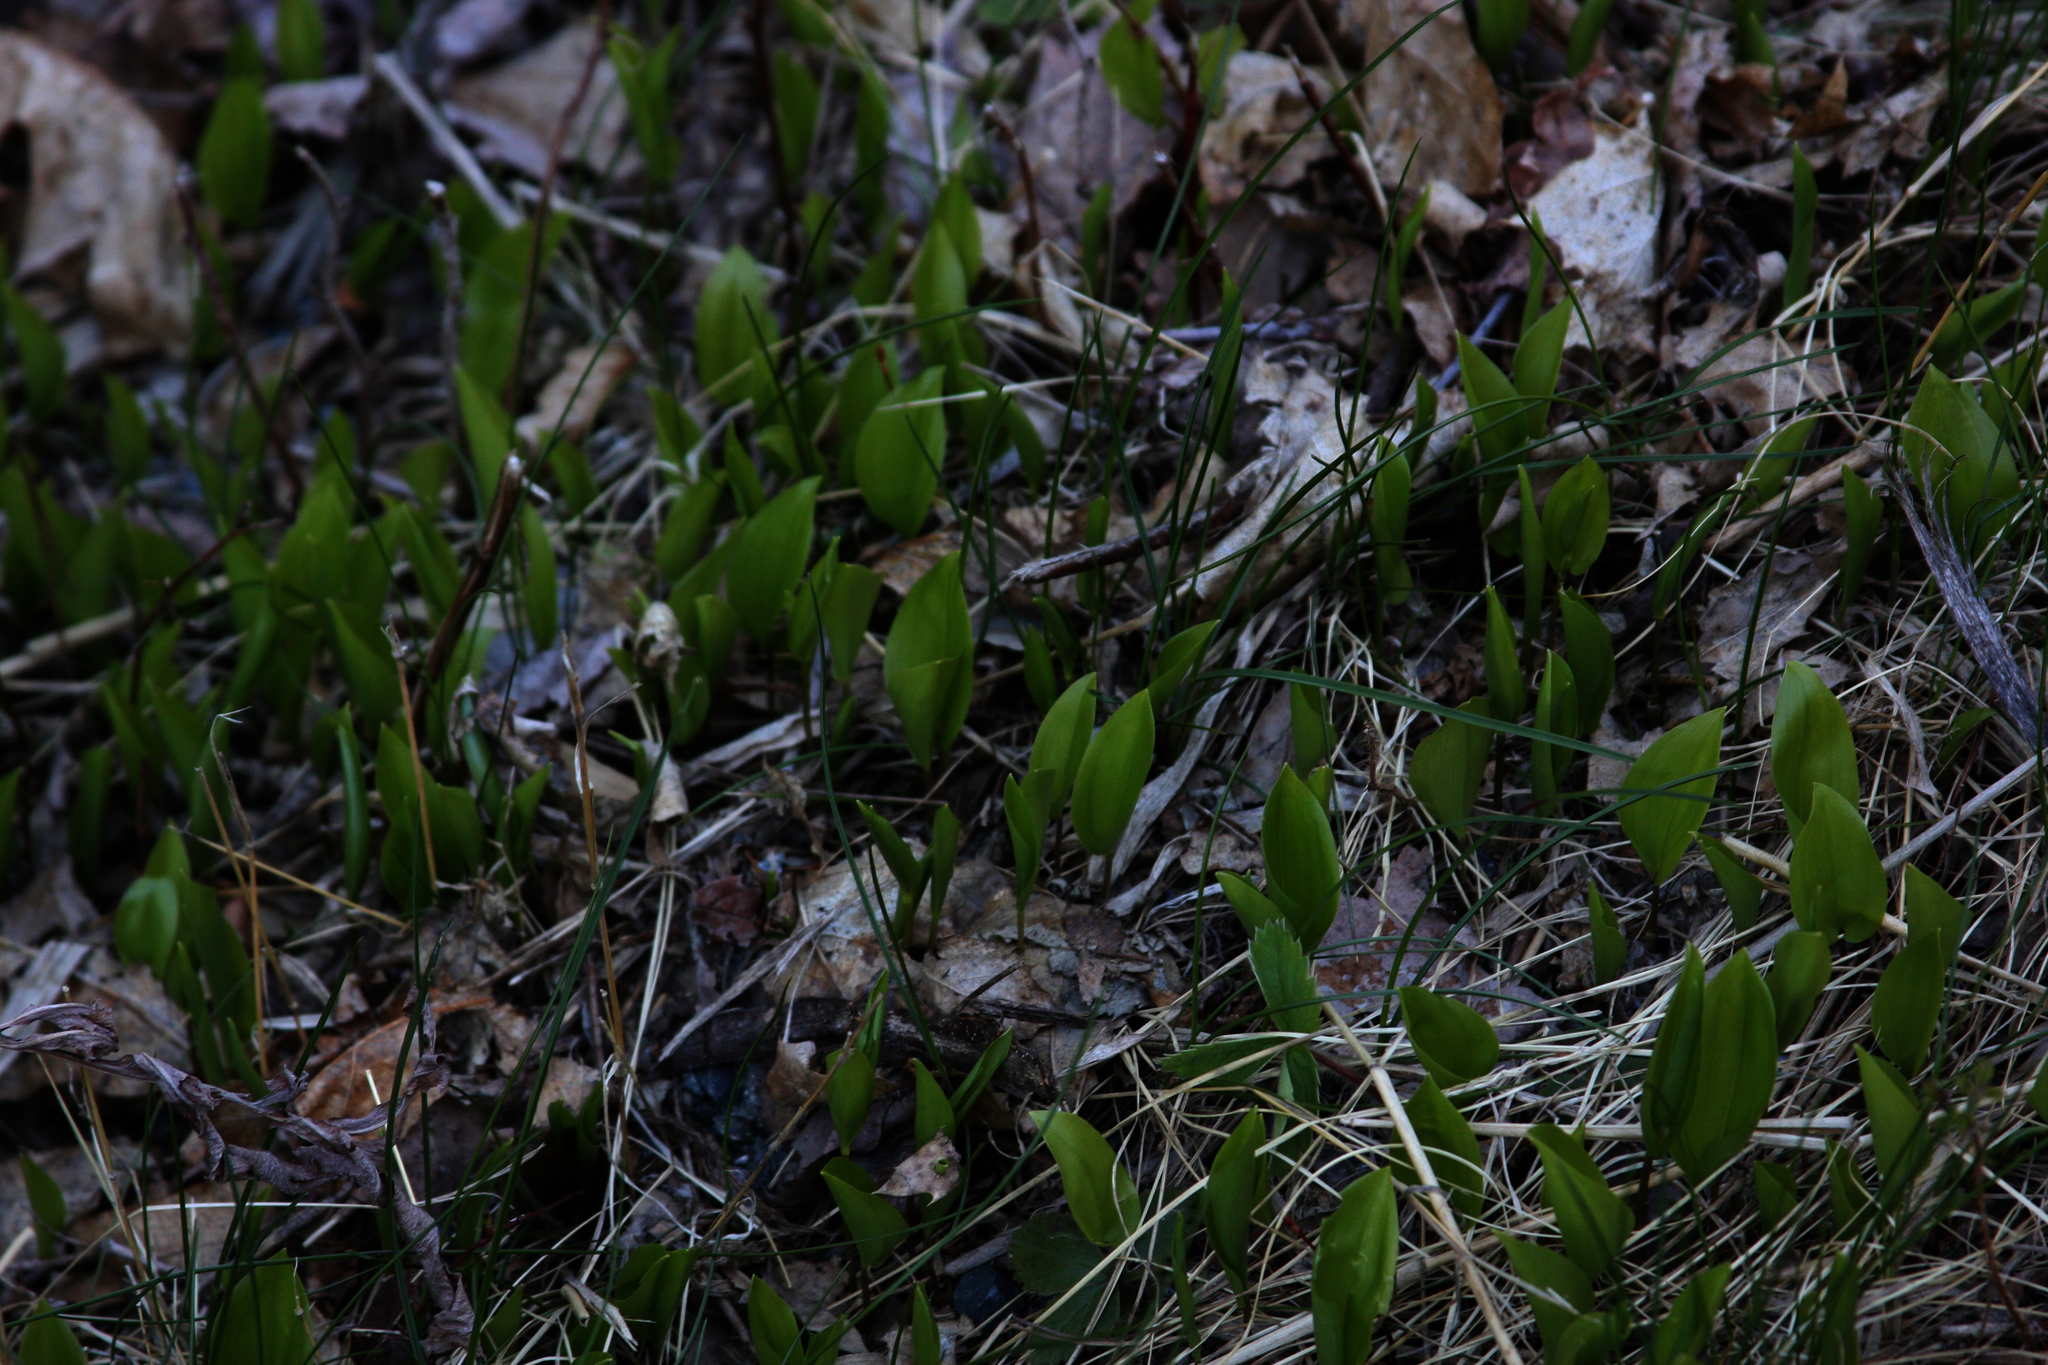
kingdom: Plantae
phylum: Tracheophyta
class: Liliopsida
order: Asparagales
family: Asparagaceae
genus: Maianthemum
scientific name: Maianthemum canadense
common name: False lily-of-the-valley
